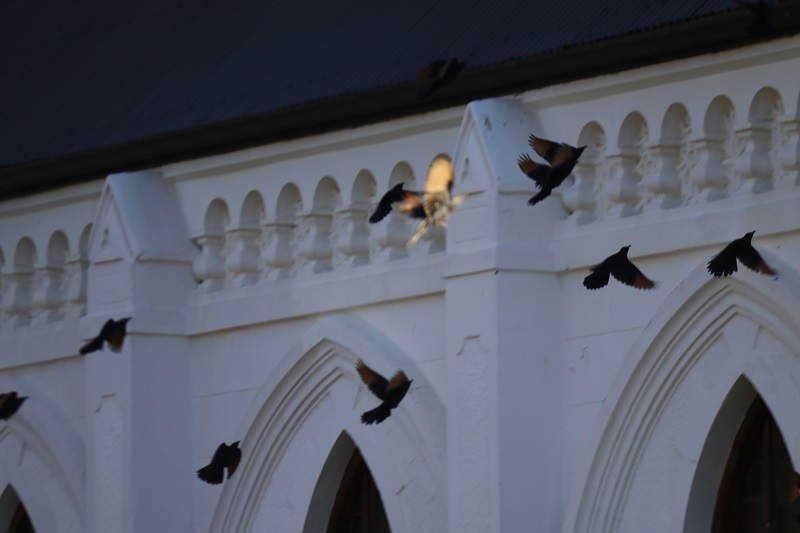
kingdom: Animalia
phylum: Chordata
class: Aves
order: Passeriformes
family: Sturnidae
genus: Onychognathus
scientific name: Onychognathus morio
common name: Red-winged starling
